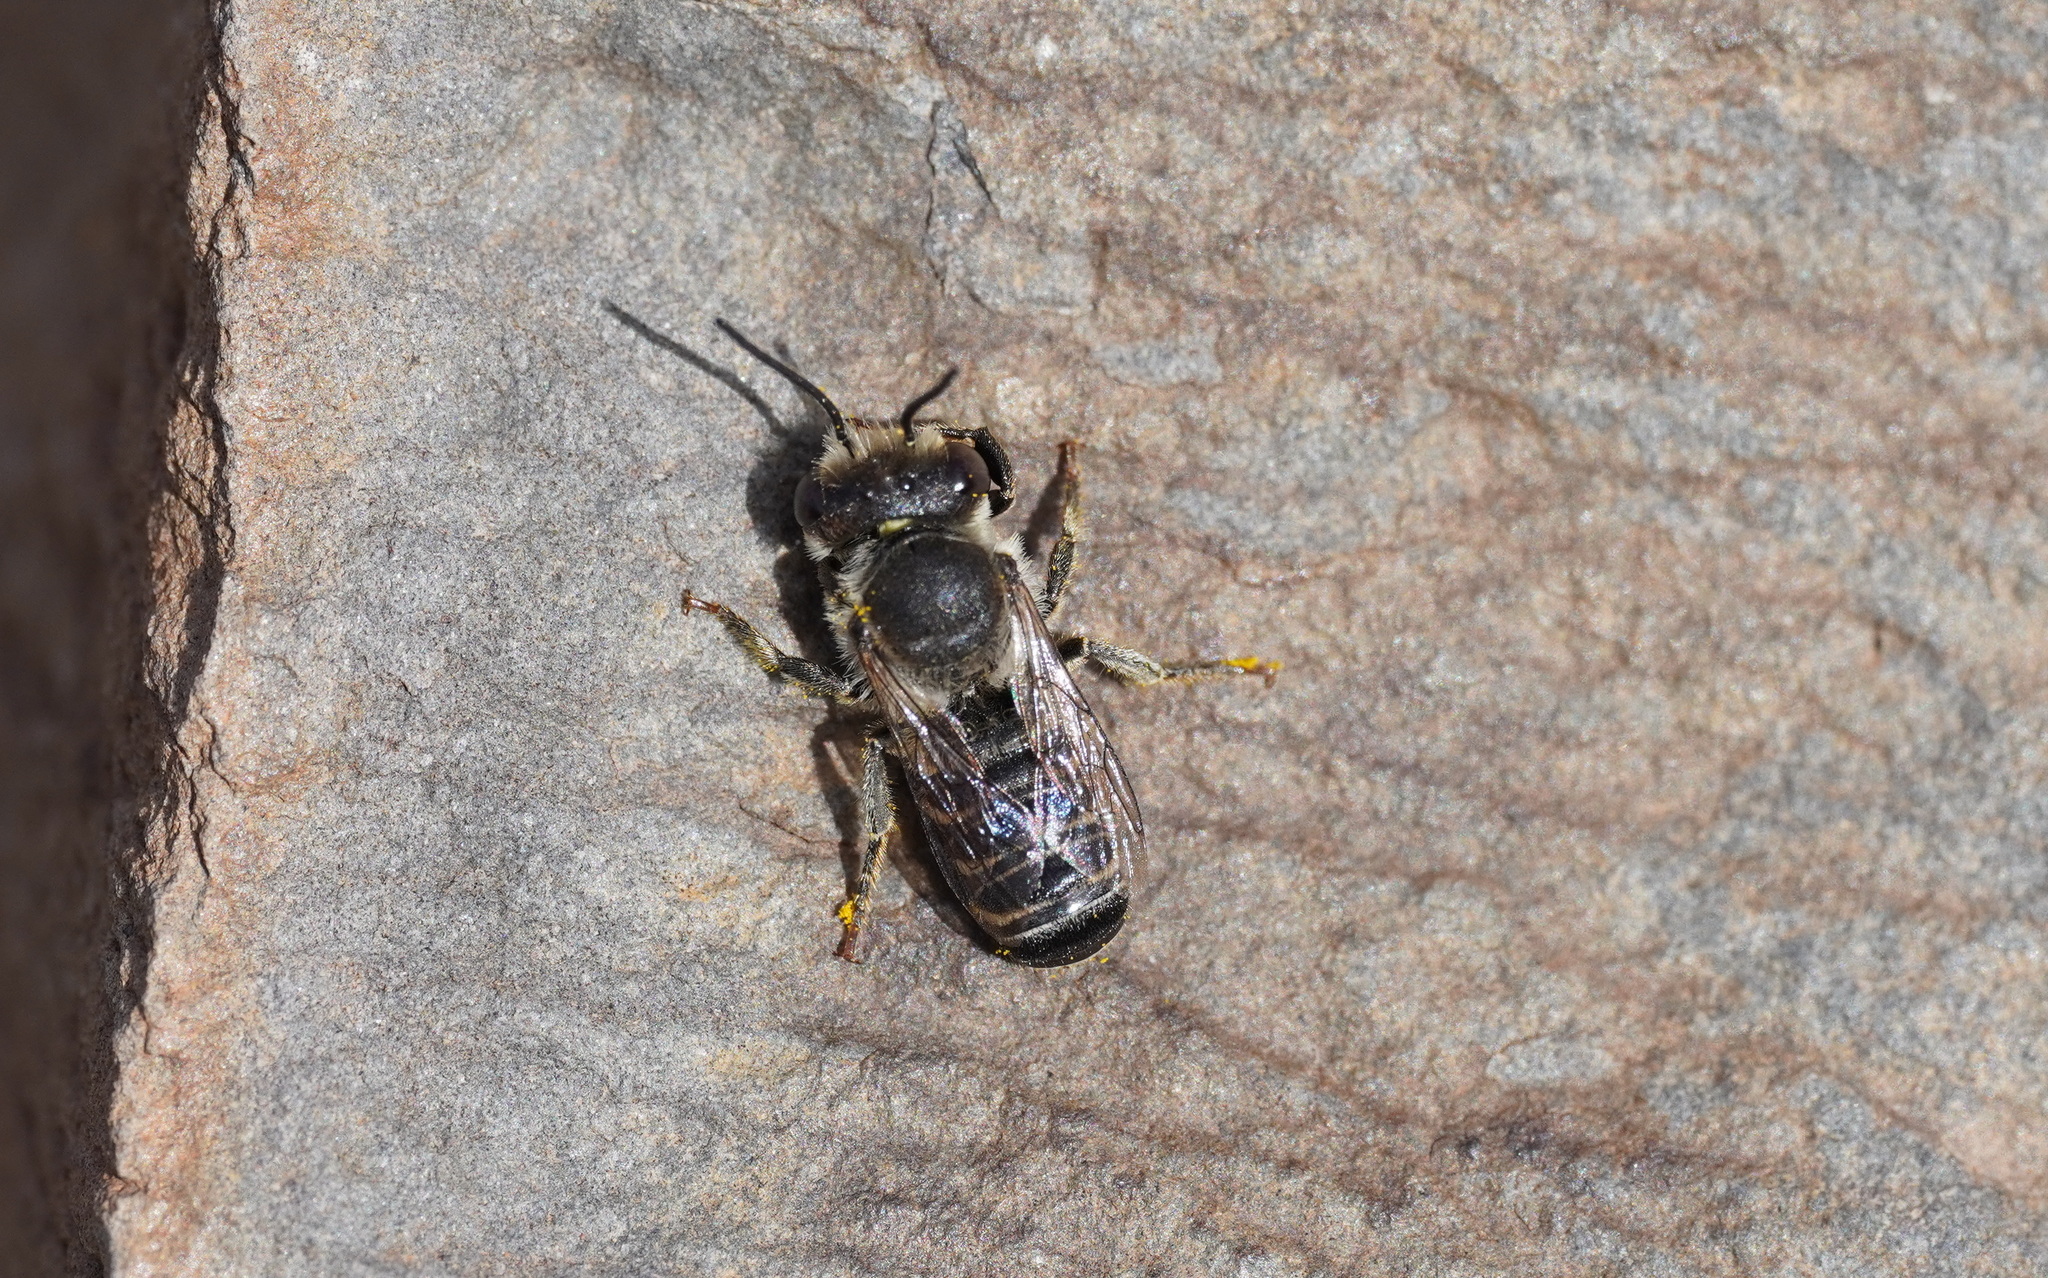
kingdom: Animalia
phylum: Arthropoda
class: Insecta
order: Hymenoptera
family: Megachilidae
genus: Megachile
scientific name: Megachile canariensis
